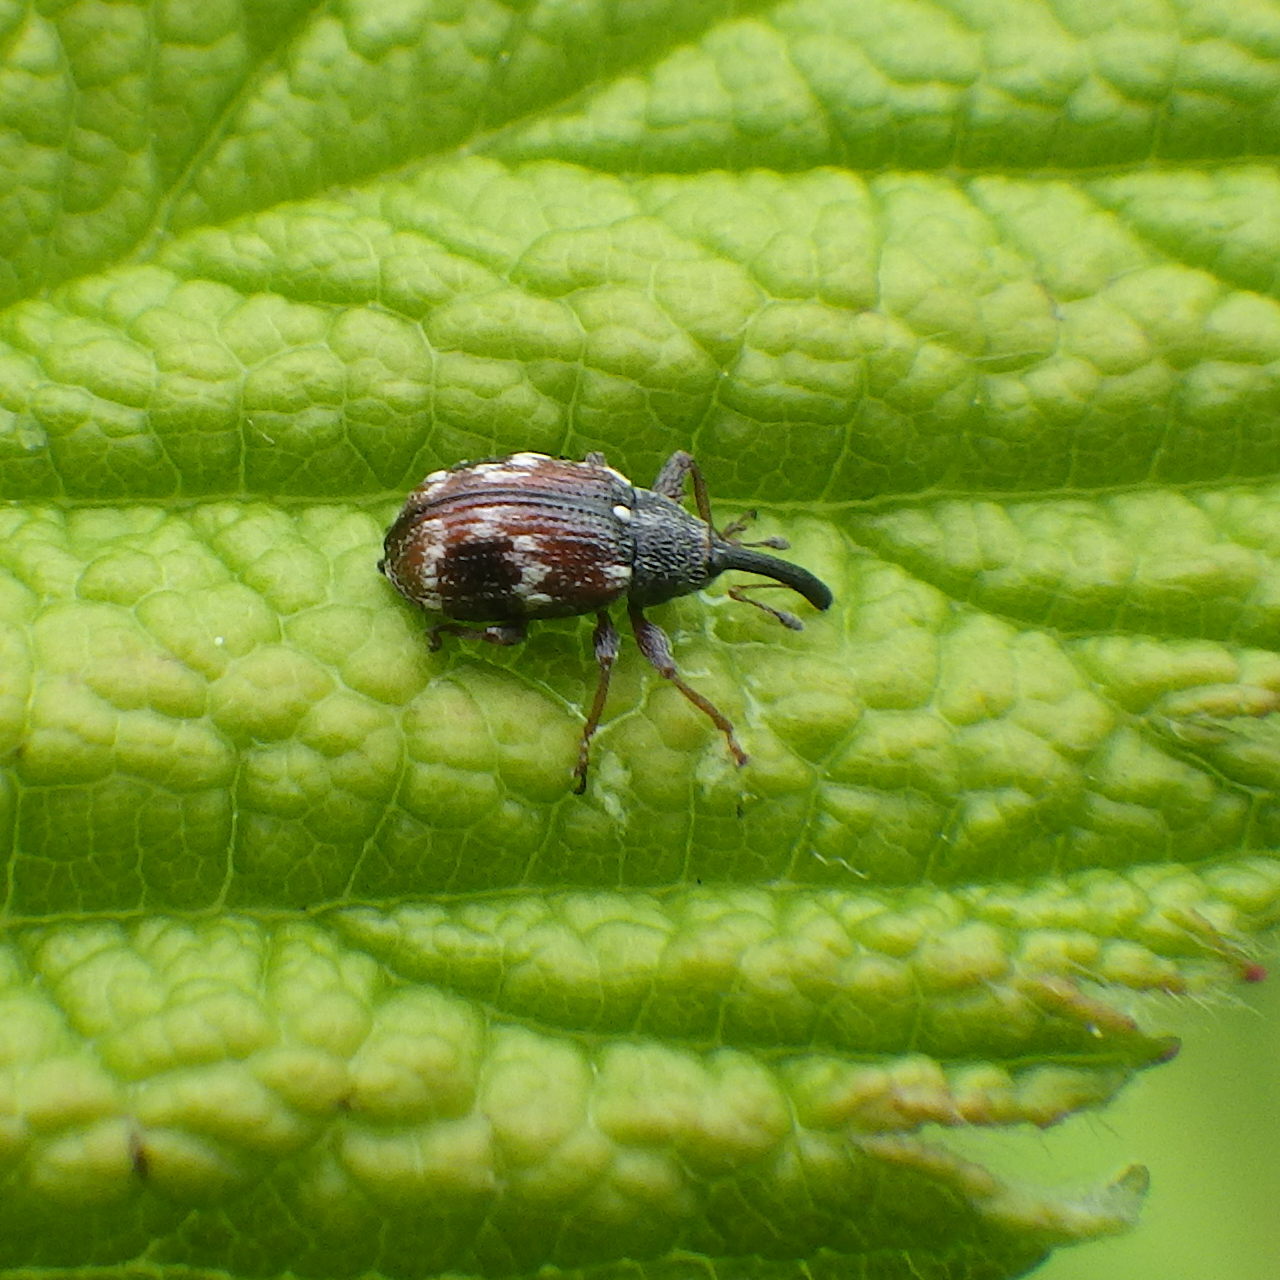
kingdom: Animalia
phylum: Arthropoda
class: Insecta
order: Coleoptera
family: Curculionidae
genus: Anthonomus
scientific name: Anthonomus signatus
